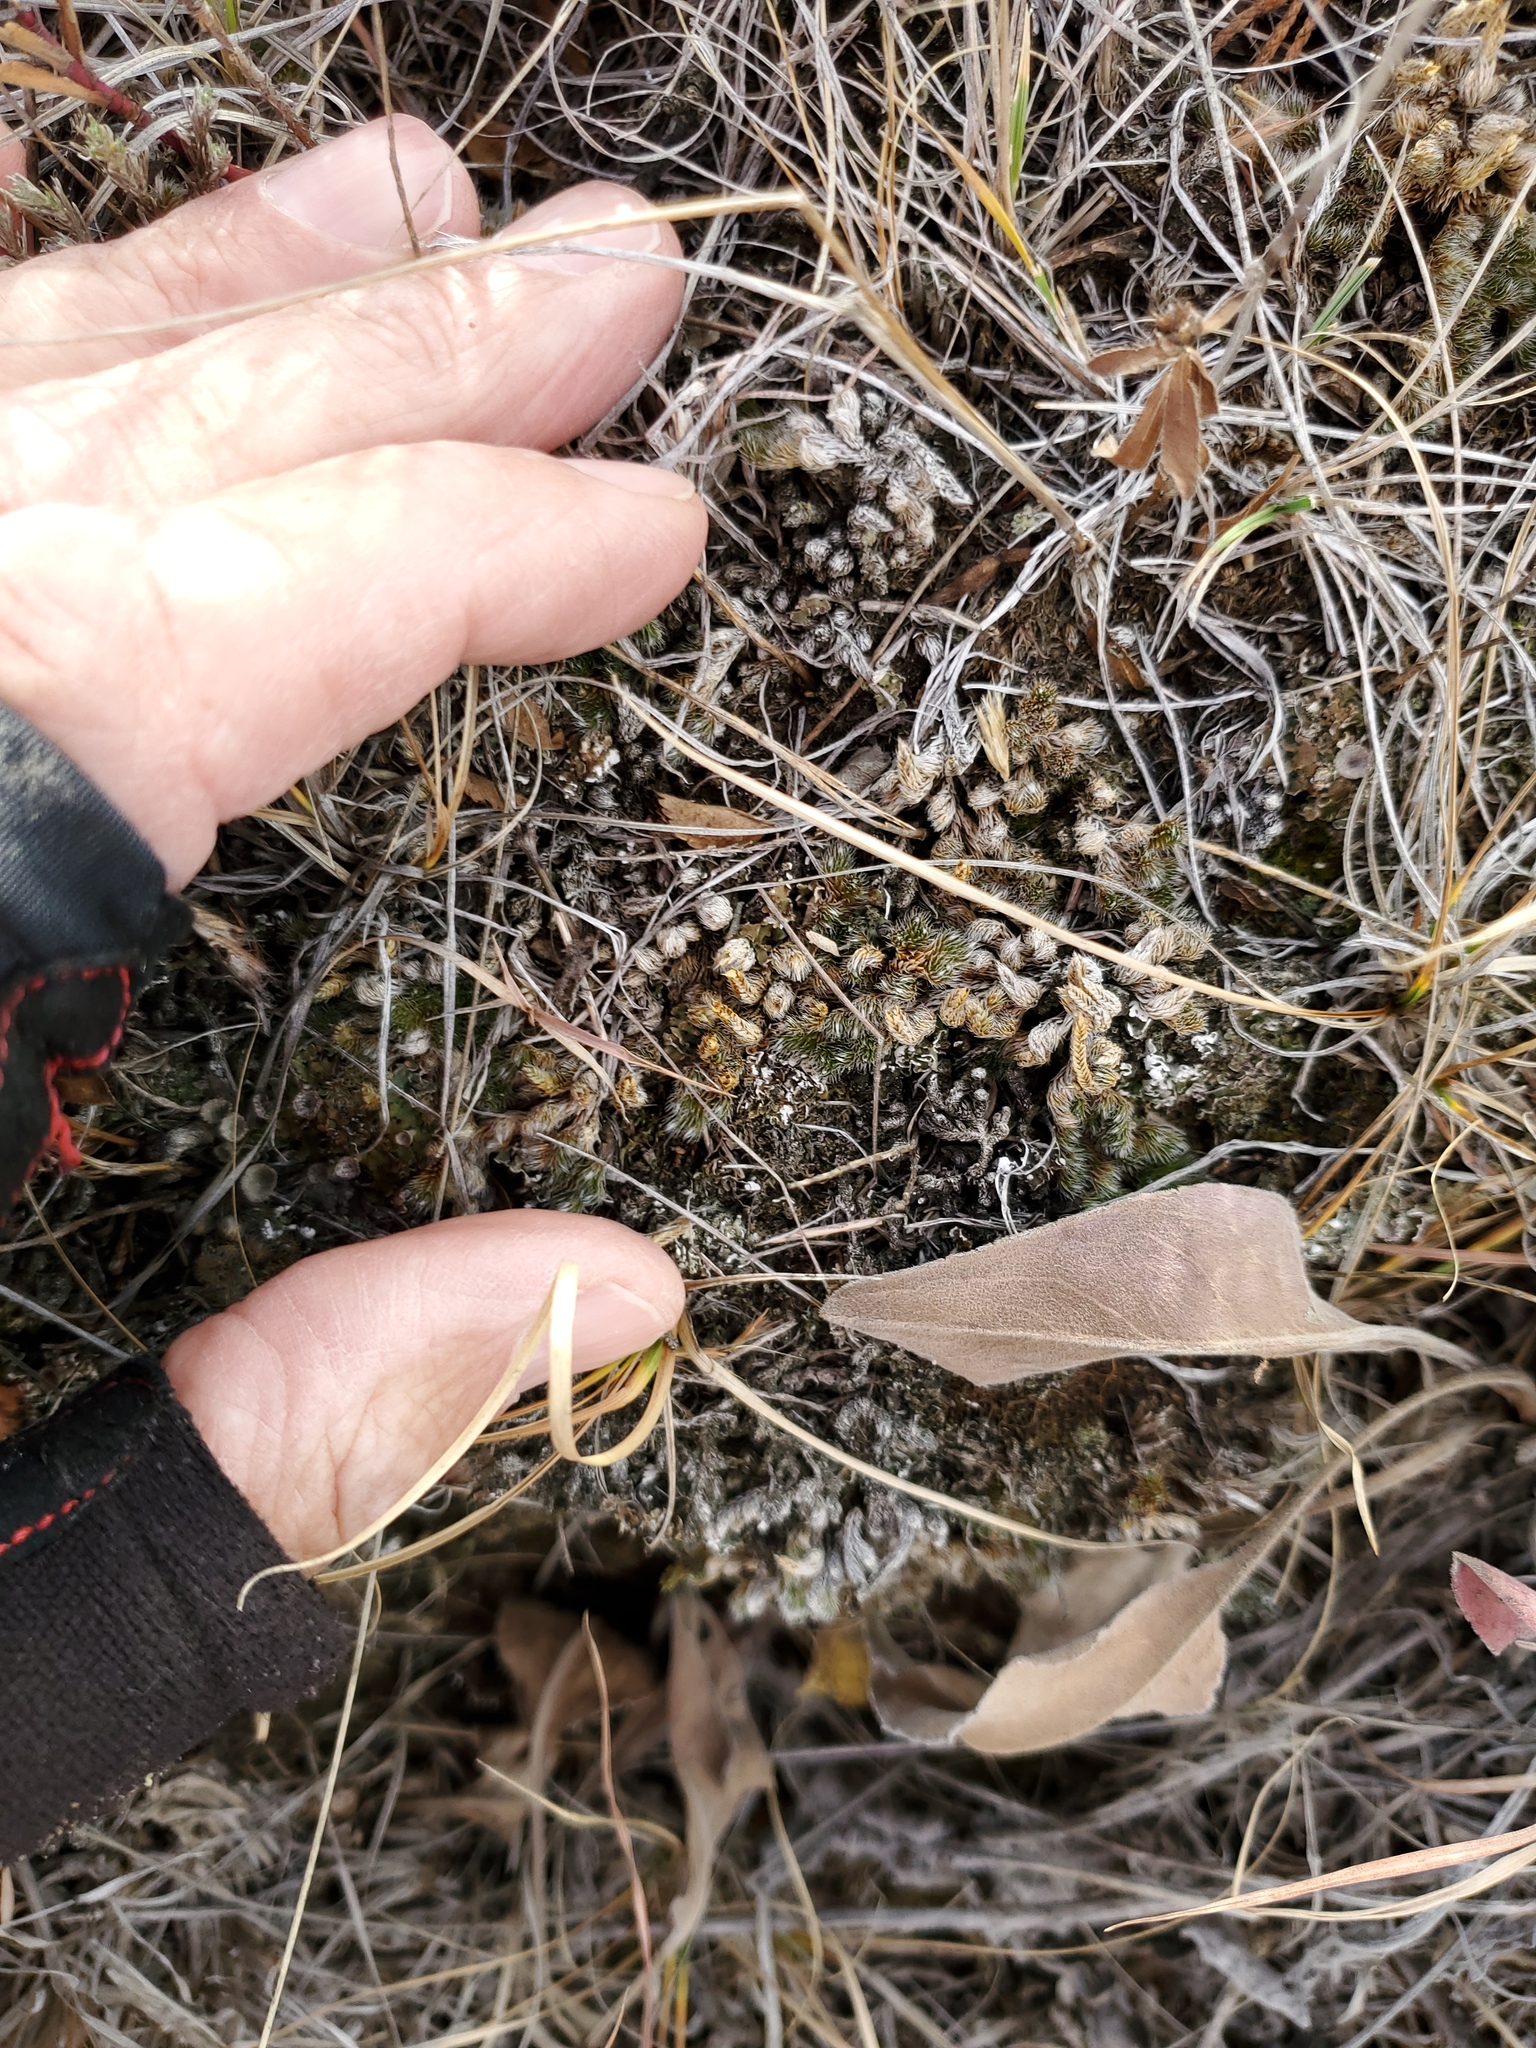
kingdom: Plantae
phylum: Tracheophyta
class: Lycopodiopsida
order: Selaginellales
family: Selaginellaceae
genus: Selaginella
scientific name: Selaginella densa
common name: Mountain spike-moss
